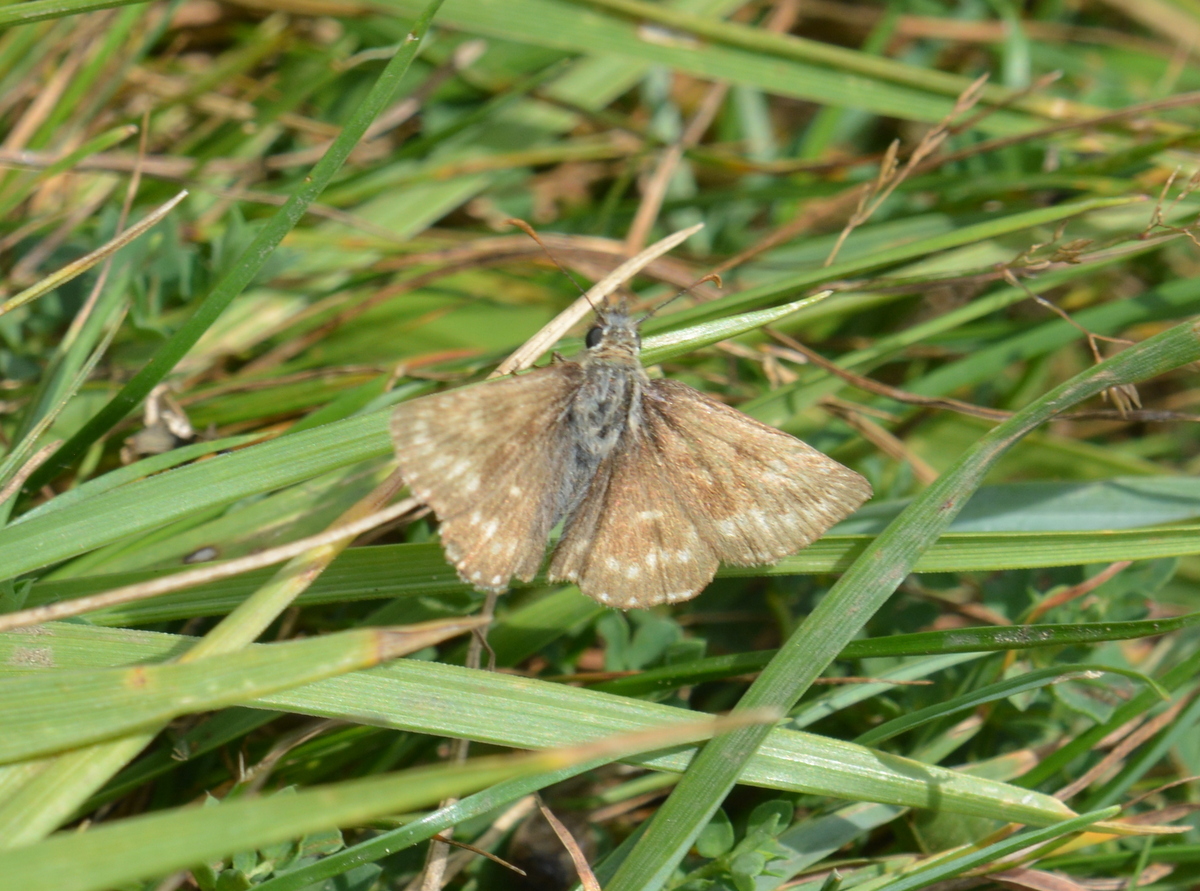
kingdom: Animalia
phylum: Arthropoda
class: Insecta
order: Lepidoptera
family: Hesperiidae
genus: Erynnis
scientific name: Erynnis tages
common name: Dingy skipper
